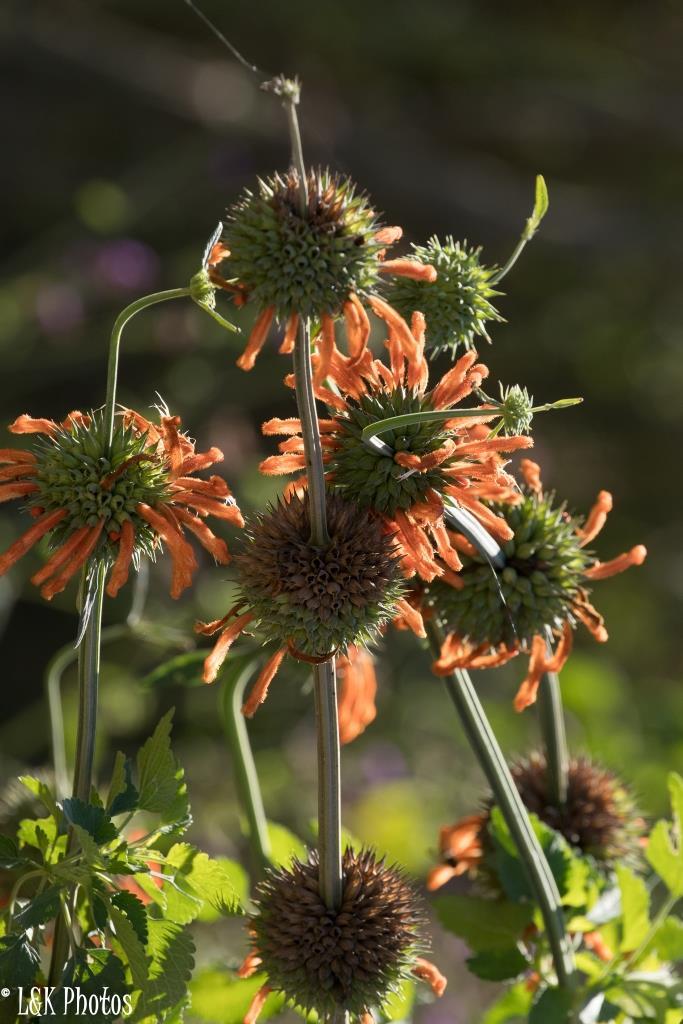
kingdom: Plantae
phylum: Tracheophyta
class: Magnoliopsida
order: Lamiales
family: Lamiaceae
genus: Leonotis
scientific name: Leonotis nepetifolia
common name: Christmas candlestick
